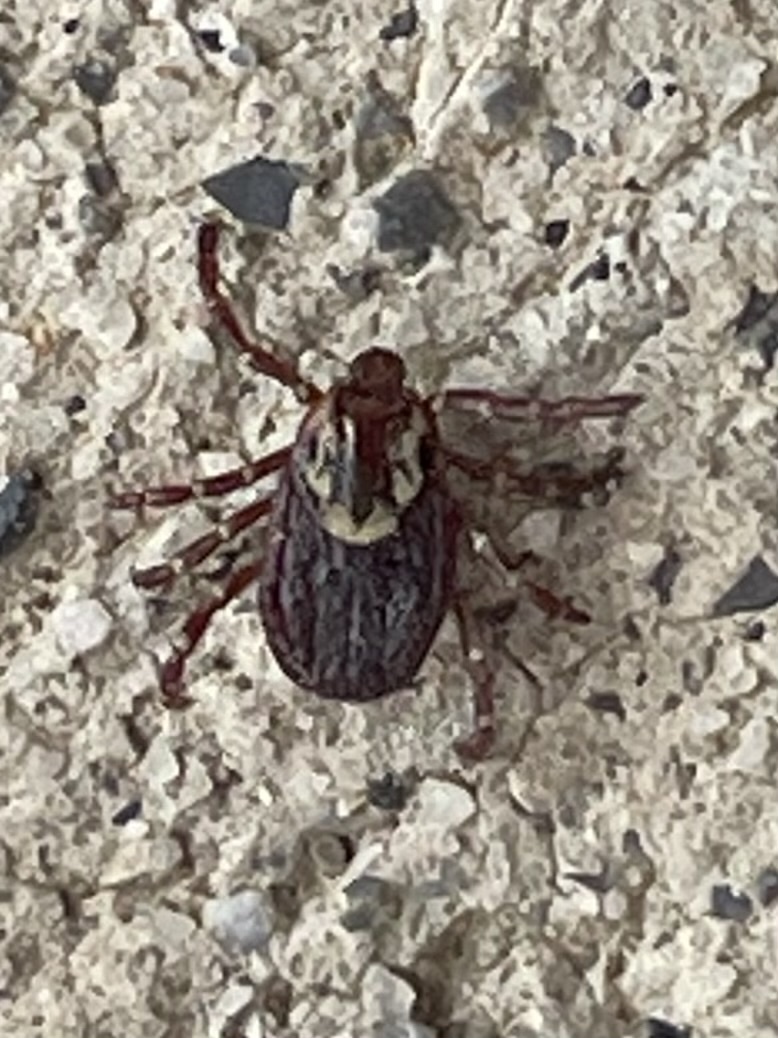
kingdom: Animalia
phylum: Arthropoda
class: Arachnida
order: Ixodida
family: Ixodidae
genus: Dermacentor
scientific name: Dermacentor variabilis
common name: American dog tick
